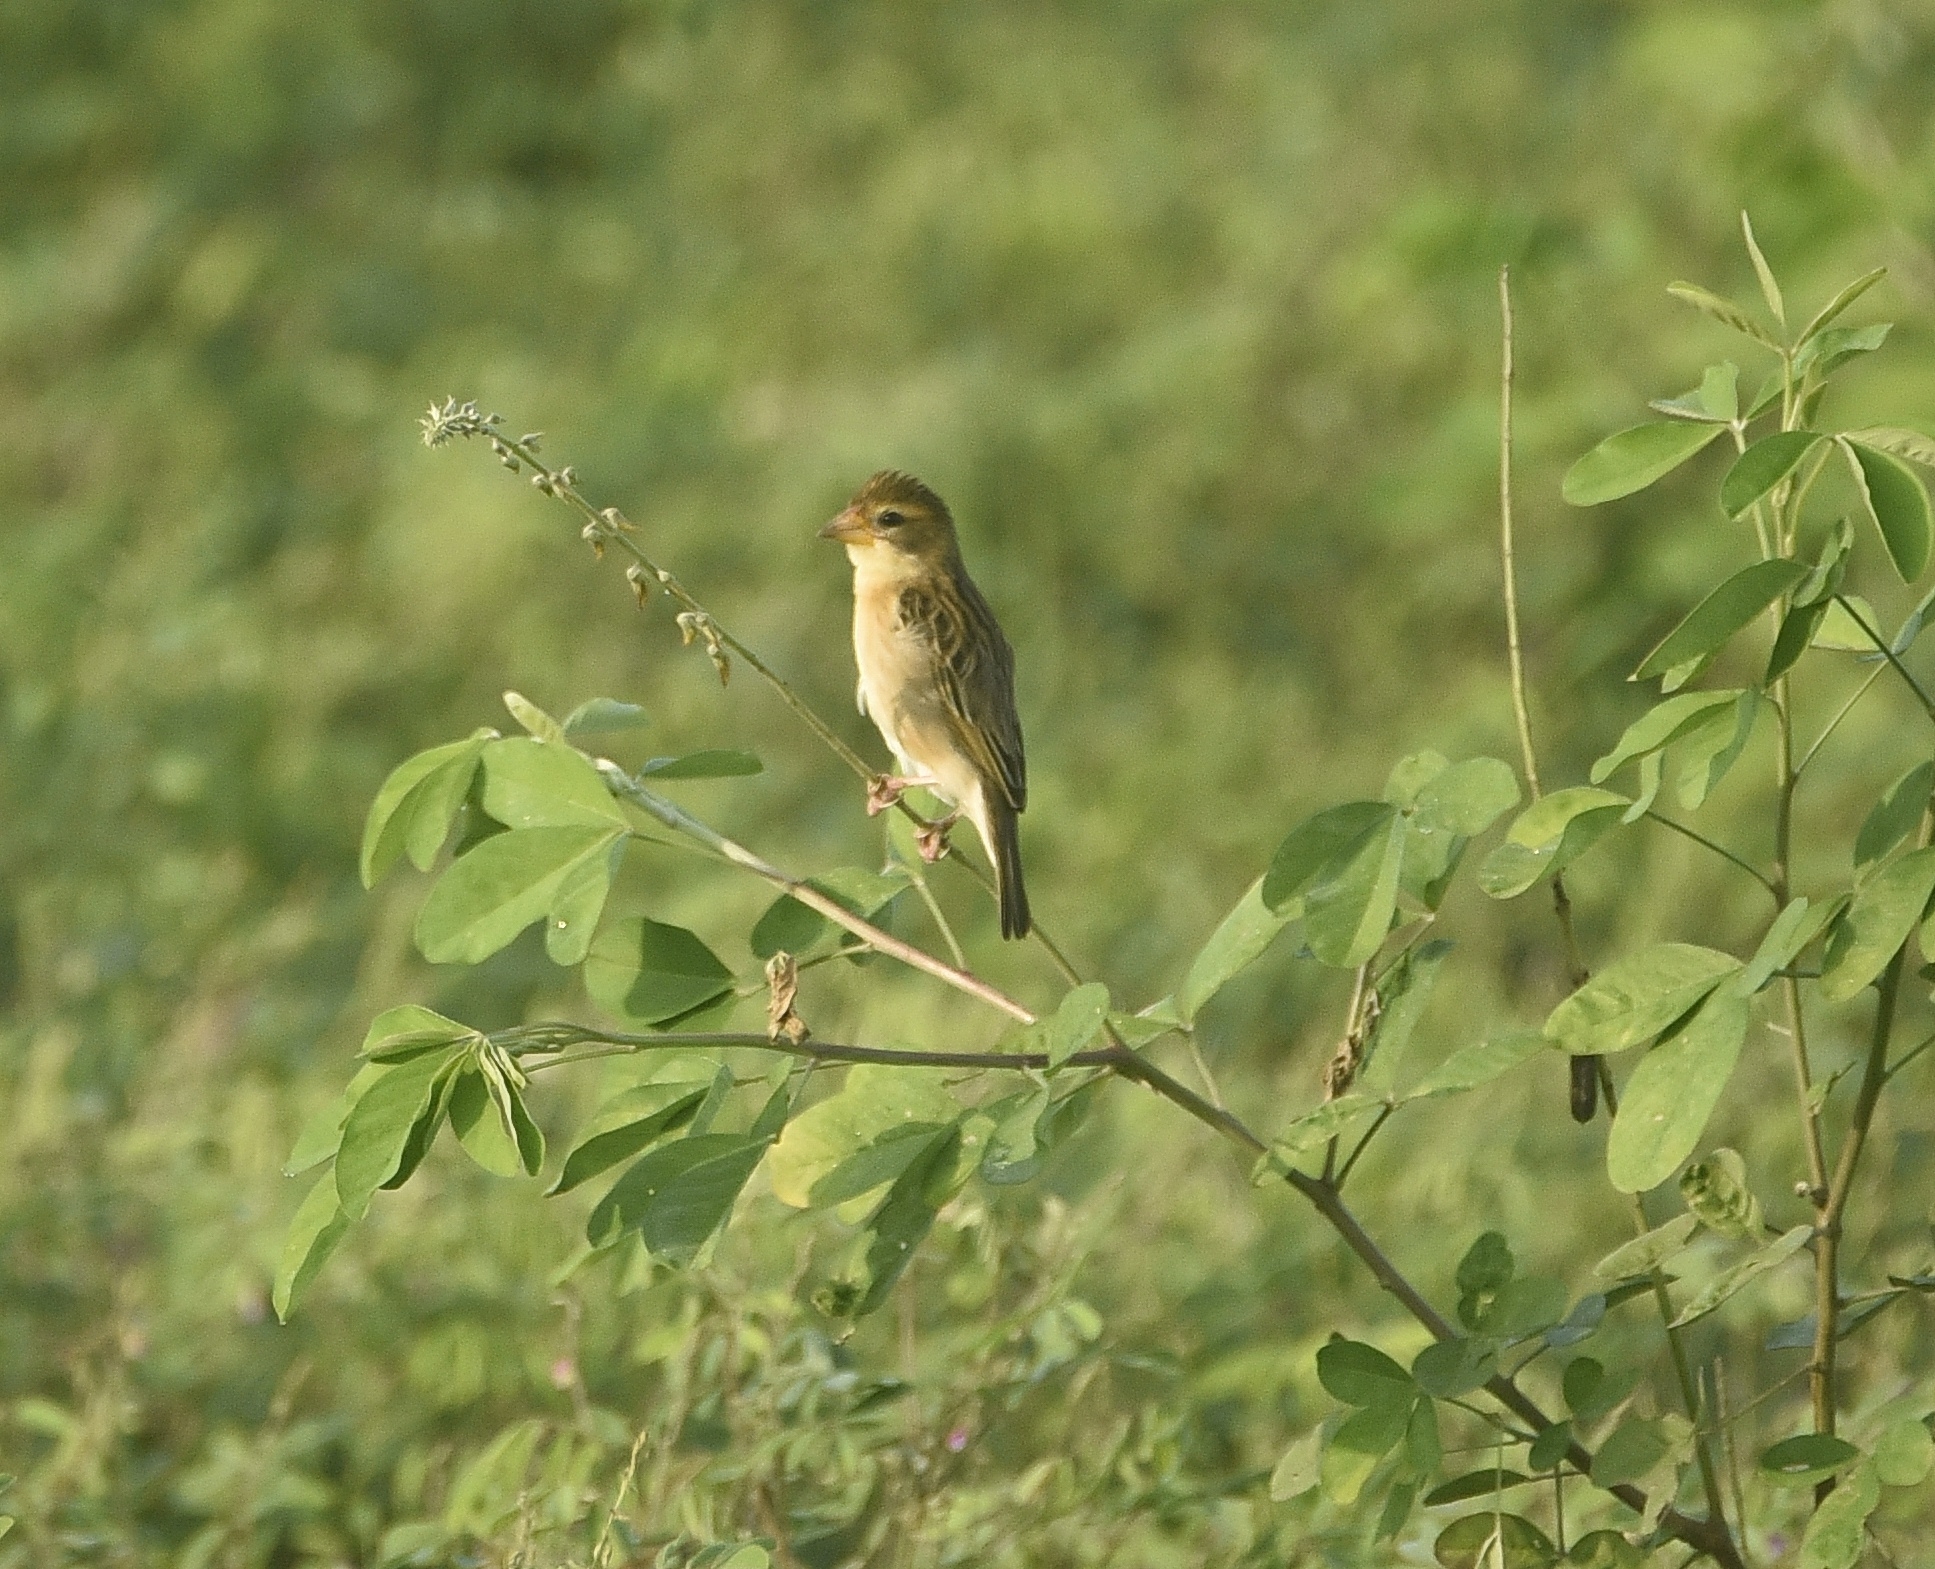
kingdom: Animalia
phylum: Chordata
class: Aves
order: Passeriformes
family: Ploceidae
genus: Ploceus
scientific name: Ploceus philippinus
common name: Baya weaver
